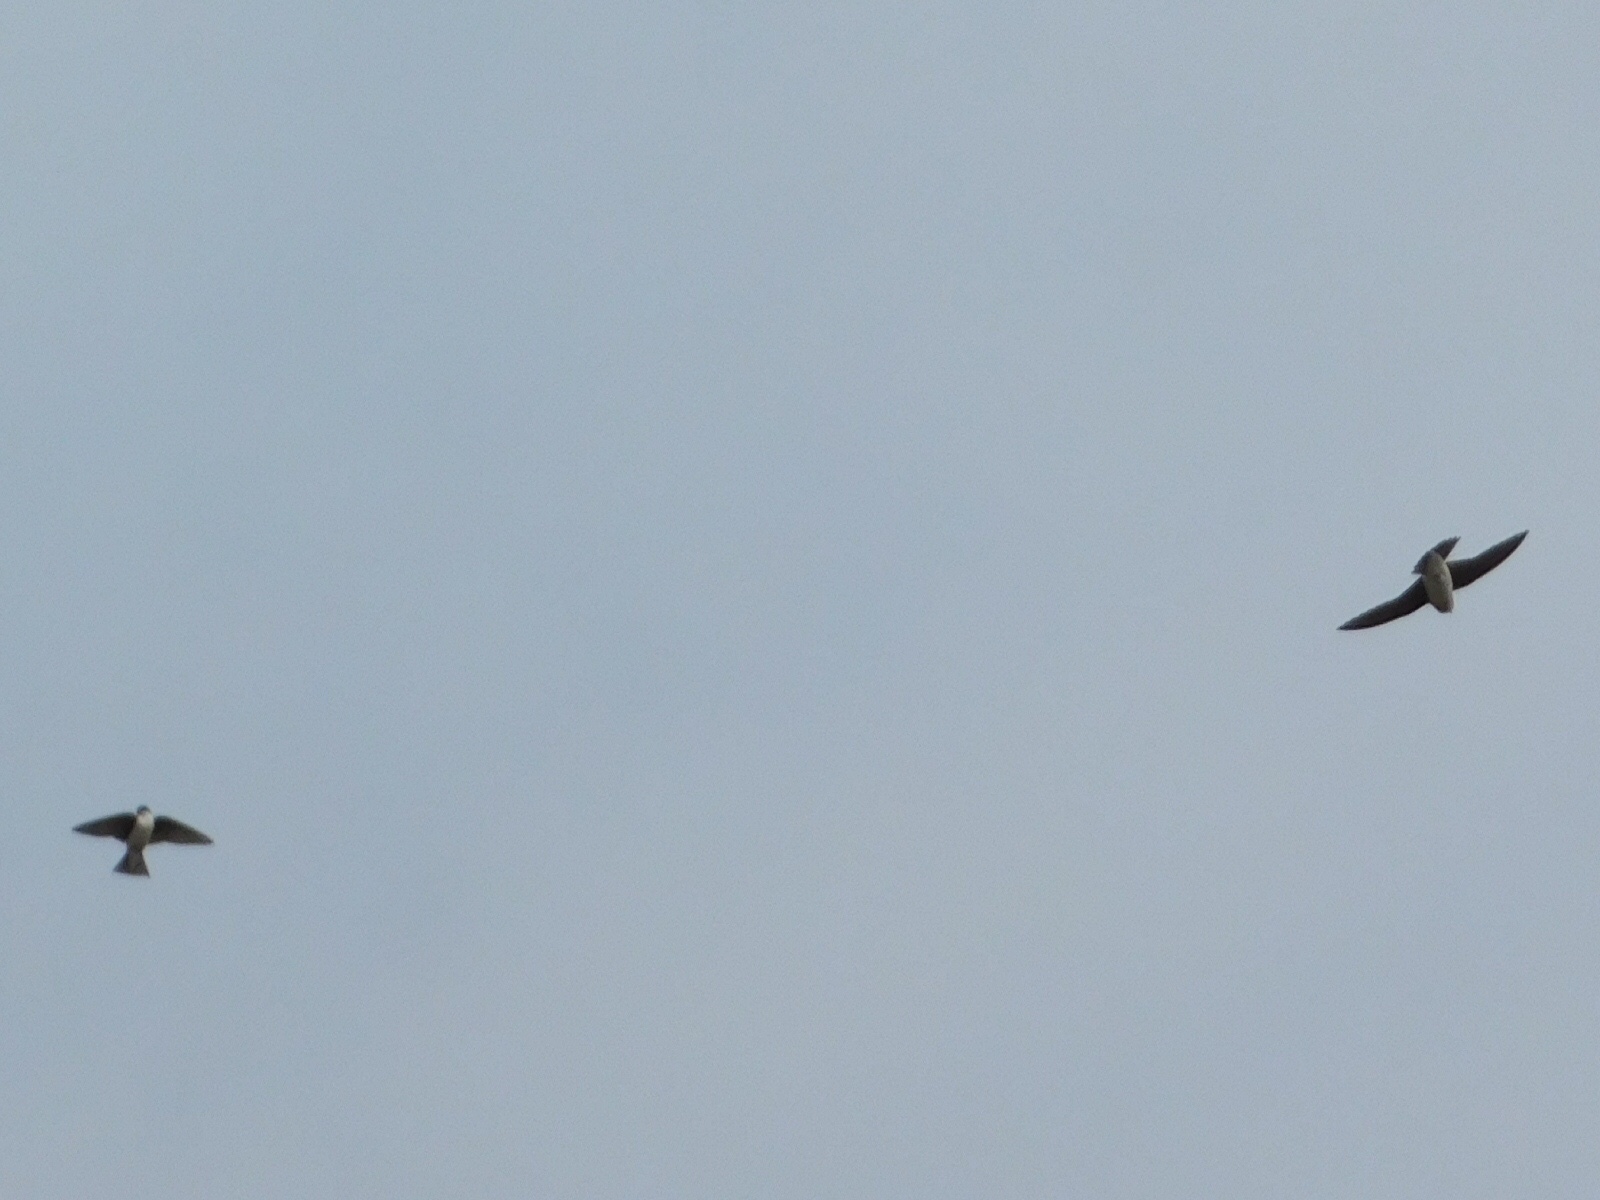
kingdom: Animalia
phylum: Chordata
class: Aves
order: Passeriformes
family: Hirundinidae
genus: Tachycineta
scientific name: Tachycineta bicolor
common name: Tree swallow
